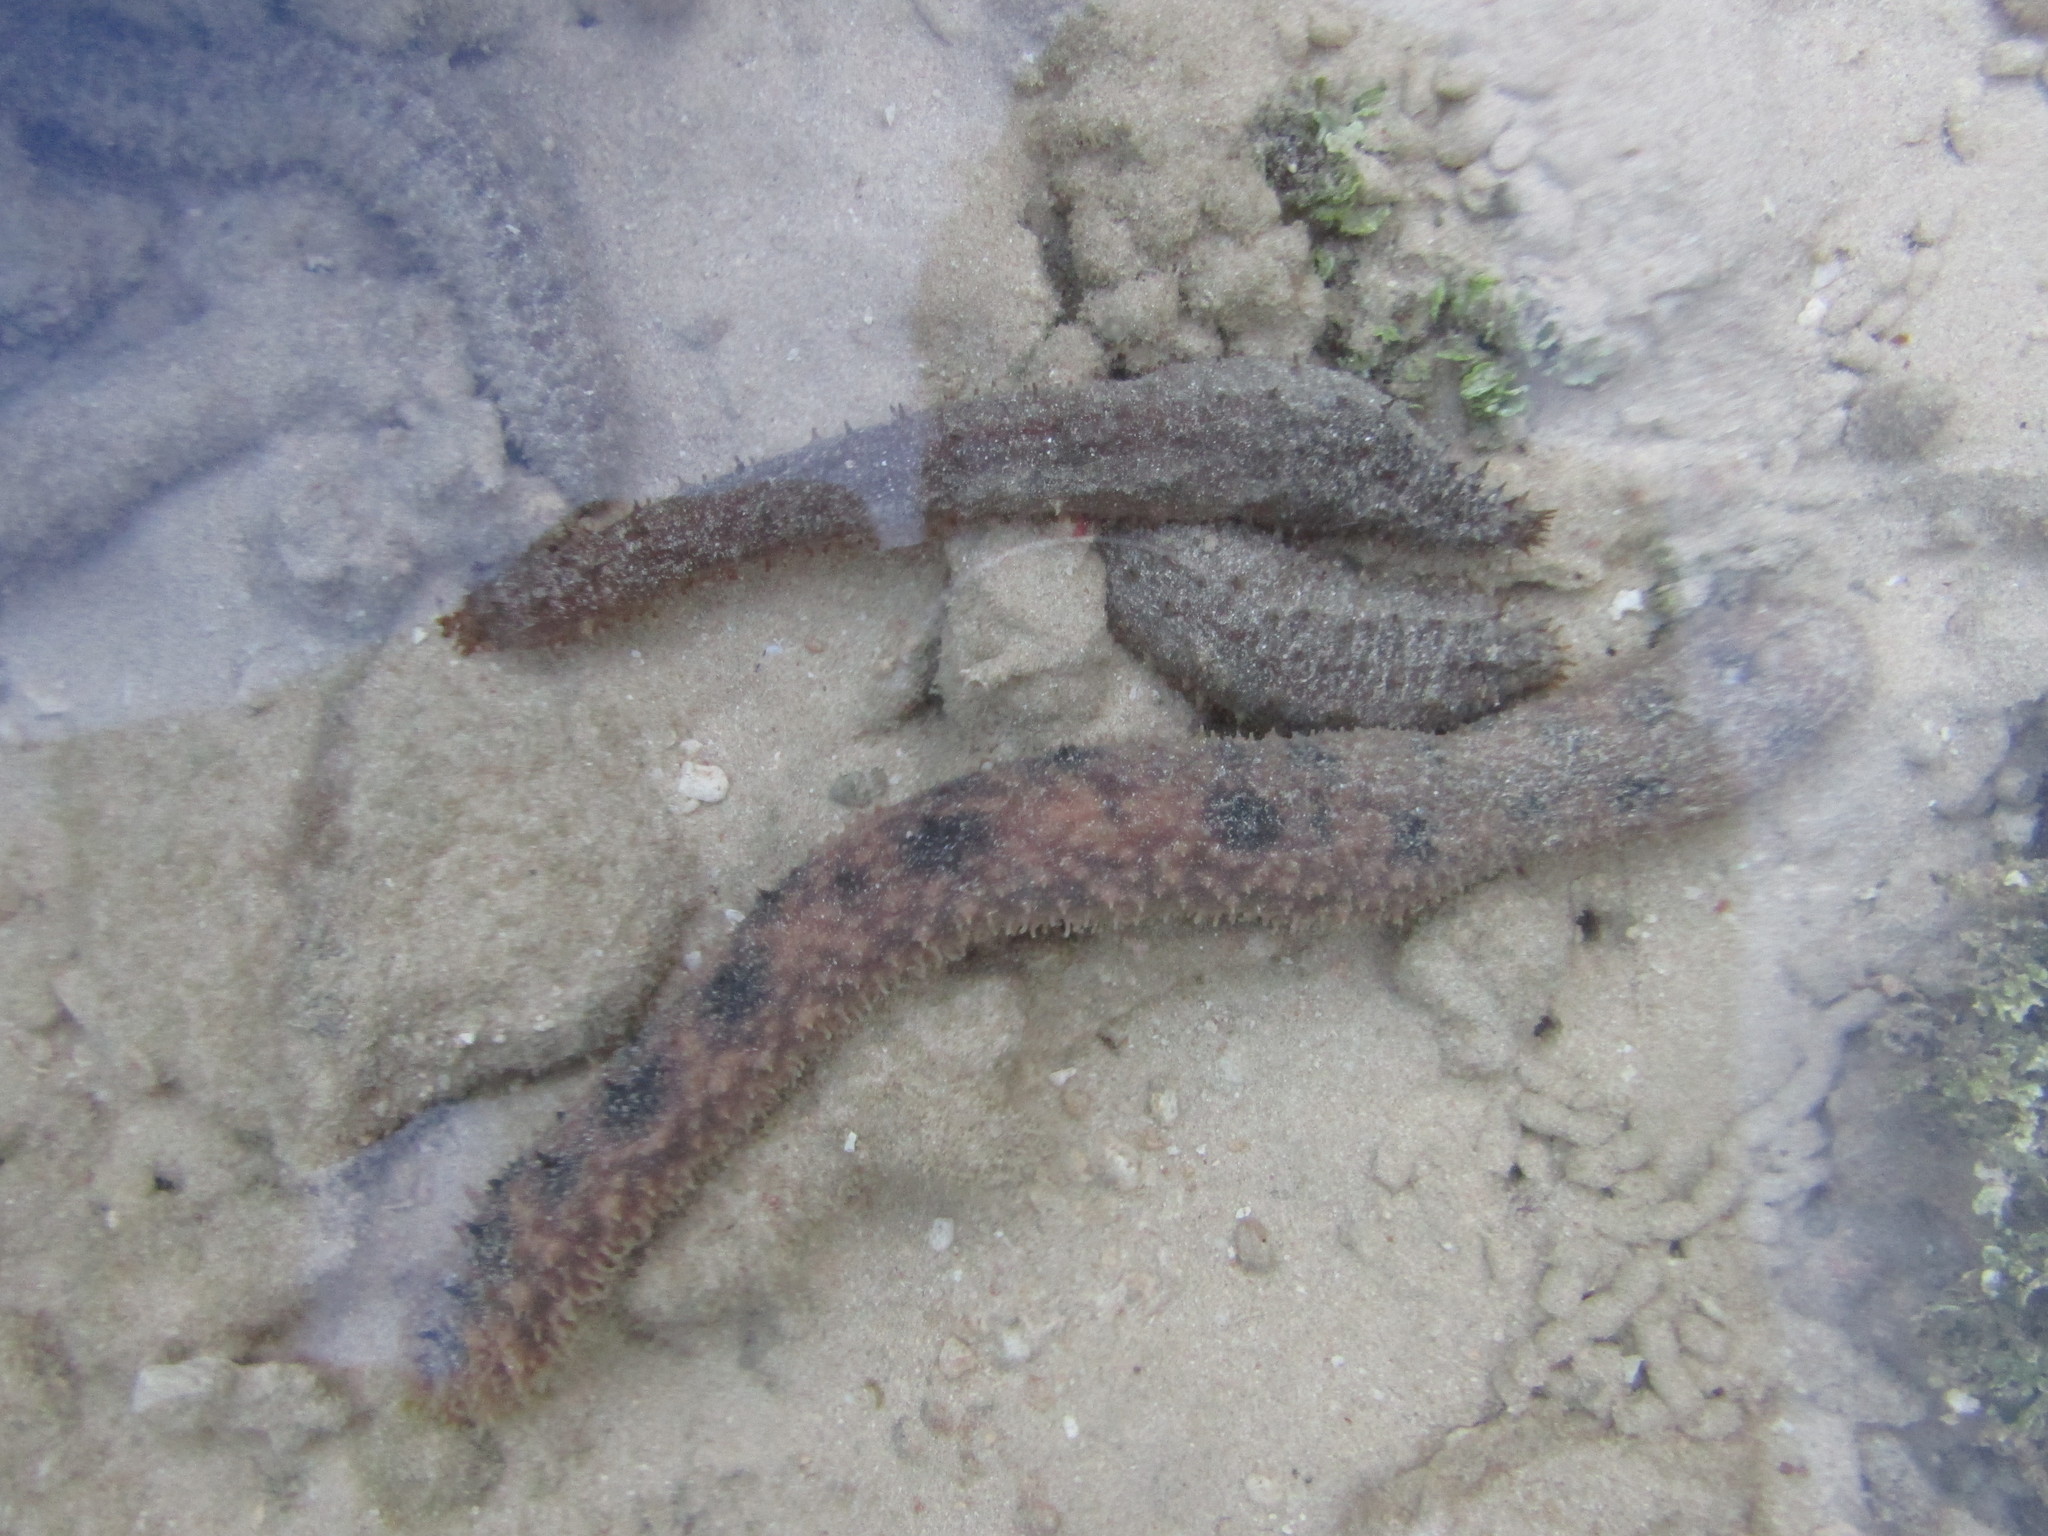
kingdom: Animalia
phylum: Echinodermata
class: Holothuroidea
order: Holothuriida
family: Holothuriidae
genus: Holothuria
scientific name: Holothuria verrucosa
